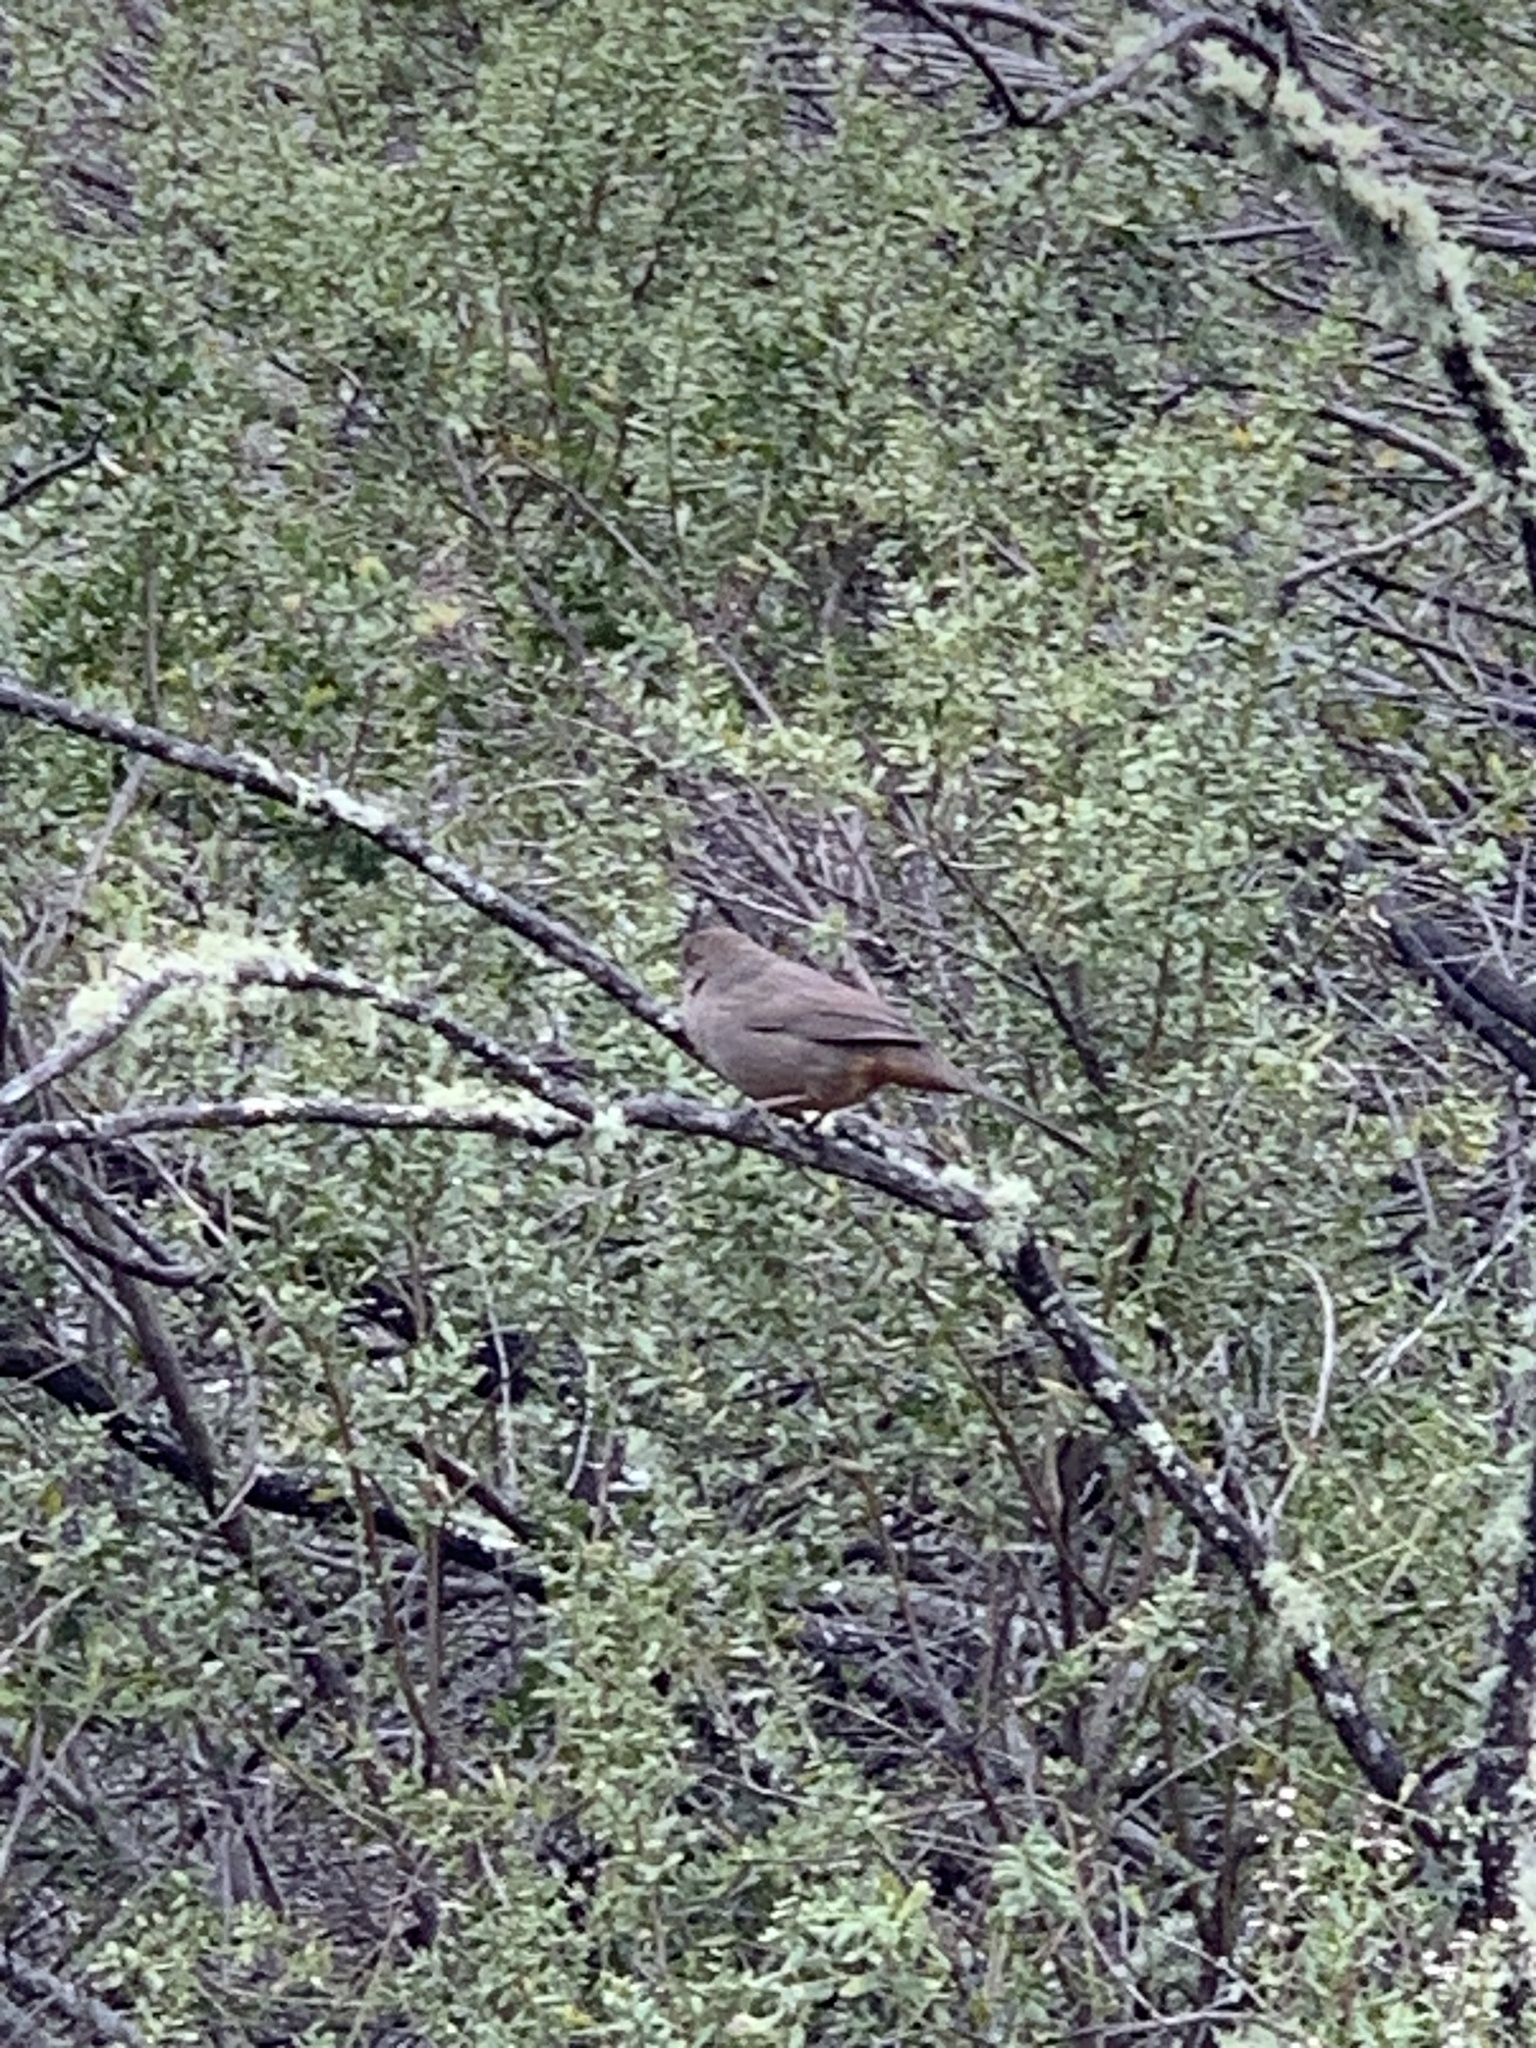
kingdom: Animalia
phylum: Chordata
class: Aves
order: Passeriformes
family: Passerellidae
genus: Melozone
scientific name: Melozone crissalis
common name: California towhee
